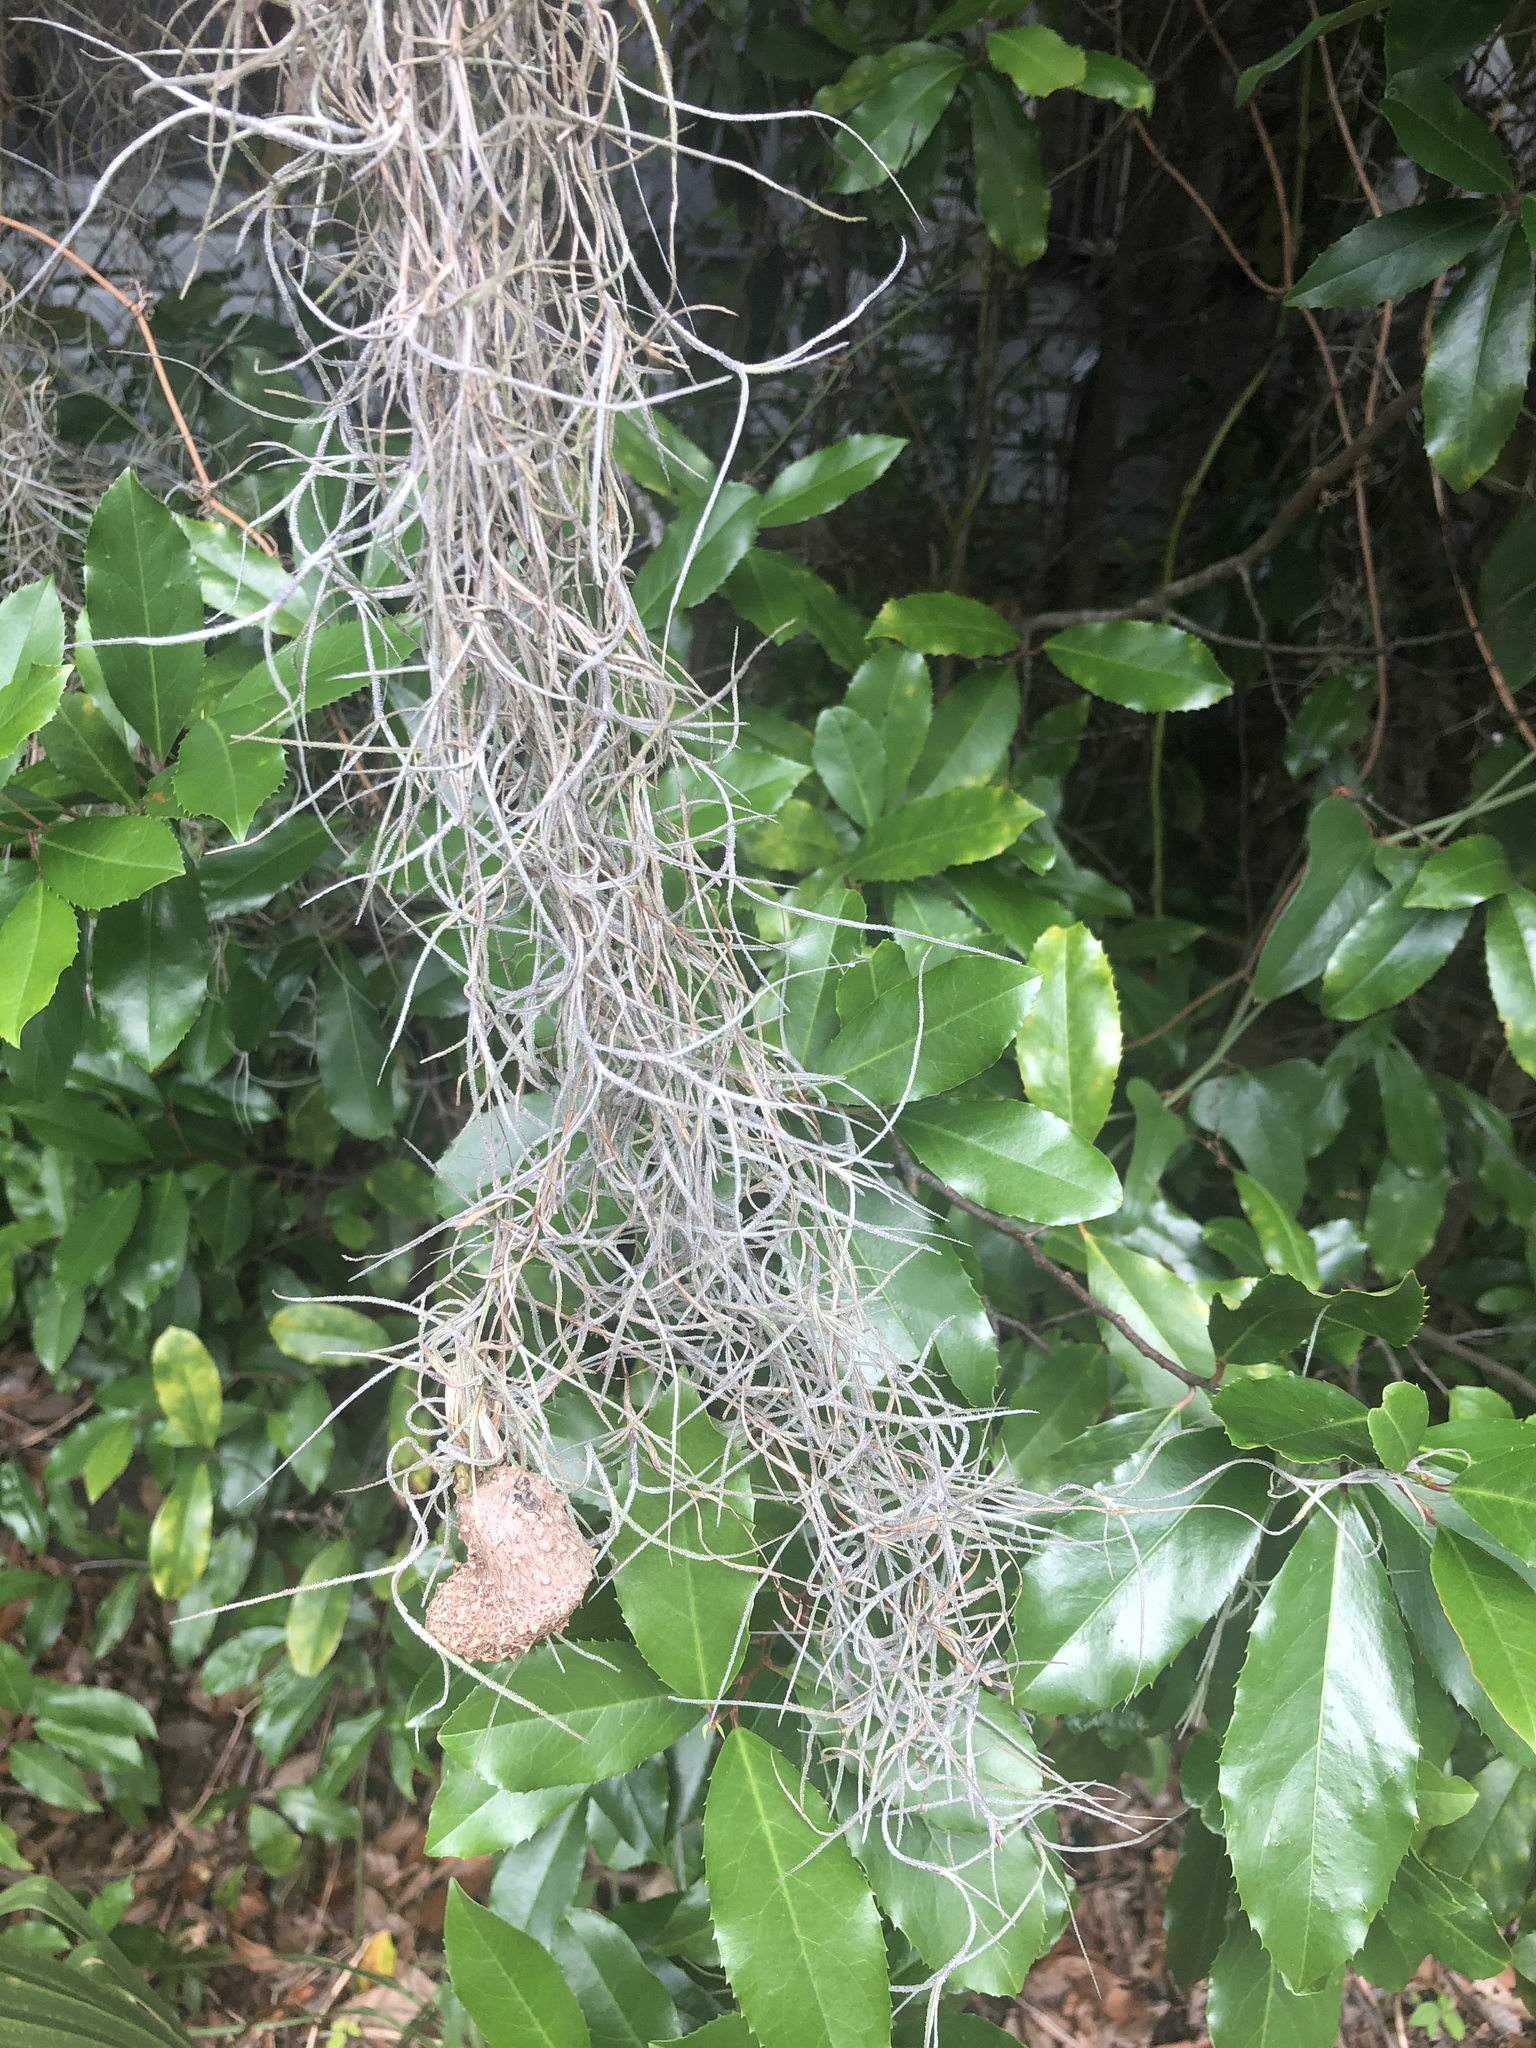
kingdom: Plantae
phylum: Tracheophyta
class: Liliopsida
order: Poales
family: Bromeliaceae
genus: Tillandsia
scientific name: Tillandsia usneoides
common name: Spanish moss
